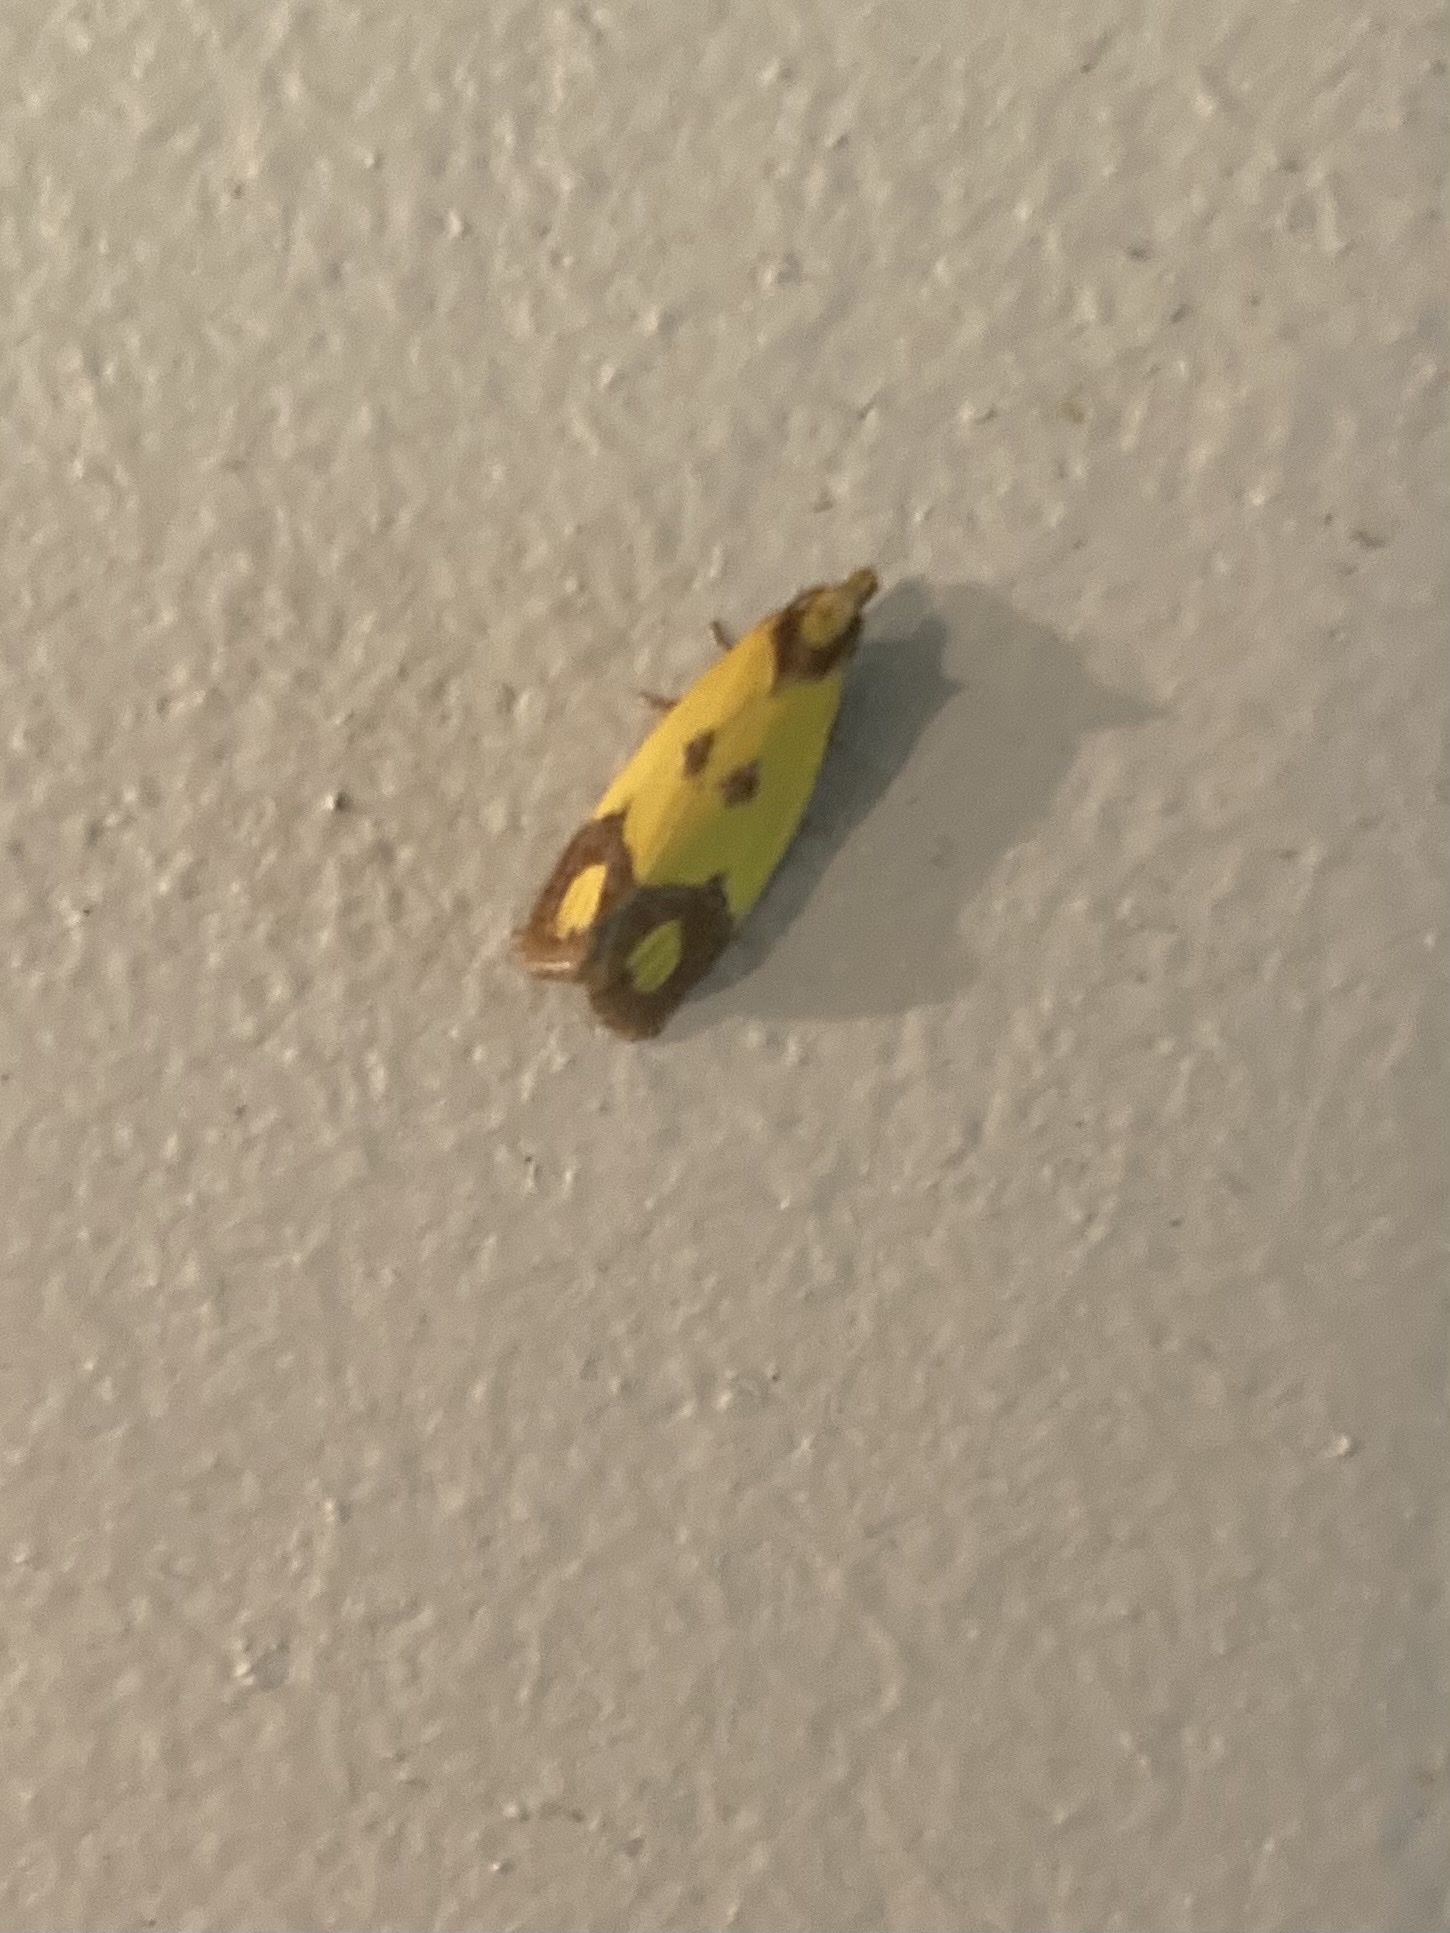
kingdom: Animalia
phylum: Arthropoda
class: Insecta
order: Lepidoptera
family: Tortricidae
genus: Agapeta
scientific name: Agapeta zoegana
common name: Sulfur knapweed root moth
